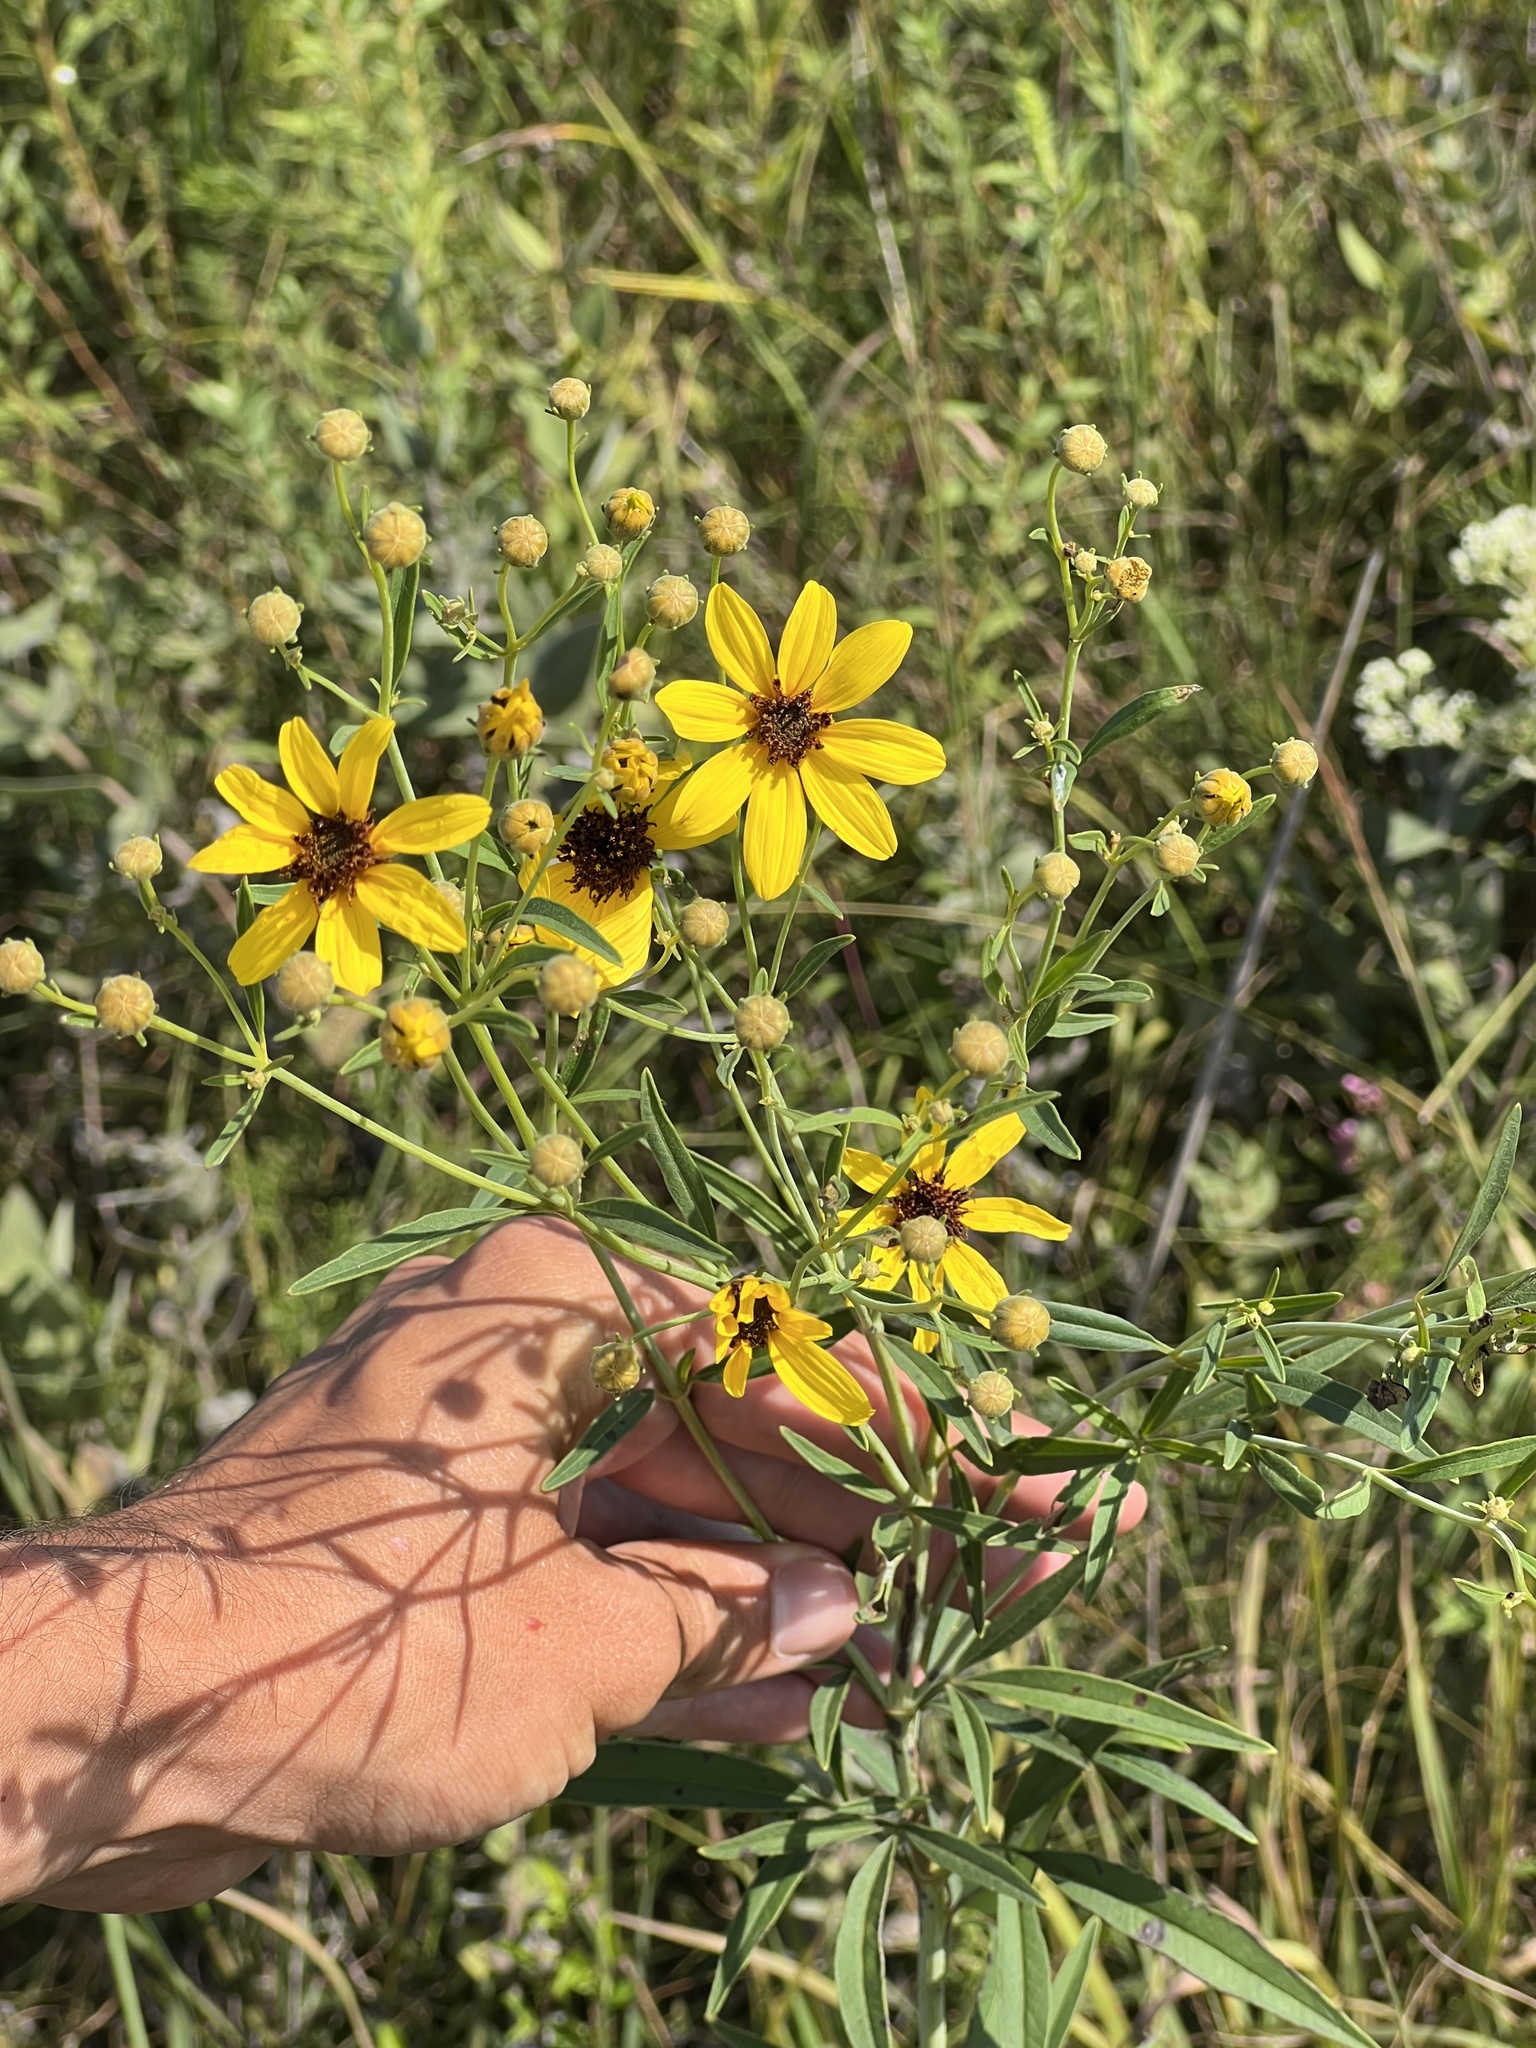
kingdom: Plantae
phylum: Tracheophyta
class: Magnoliopsida
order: Asterales
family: Asteraceae
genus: Coreopsis
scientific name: Coreopsis tripteris
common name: Tall coreopsis
